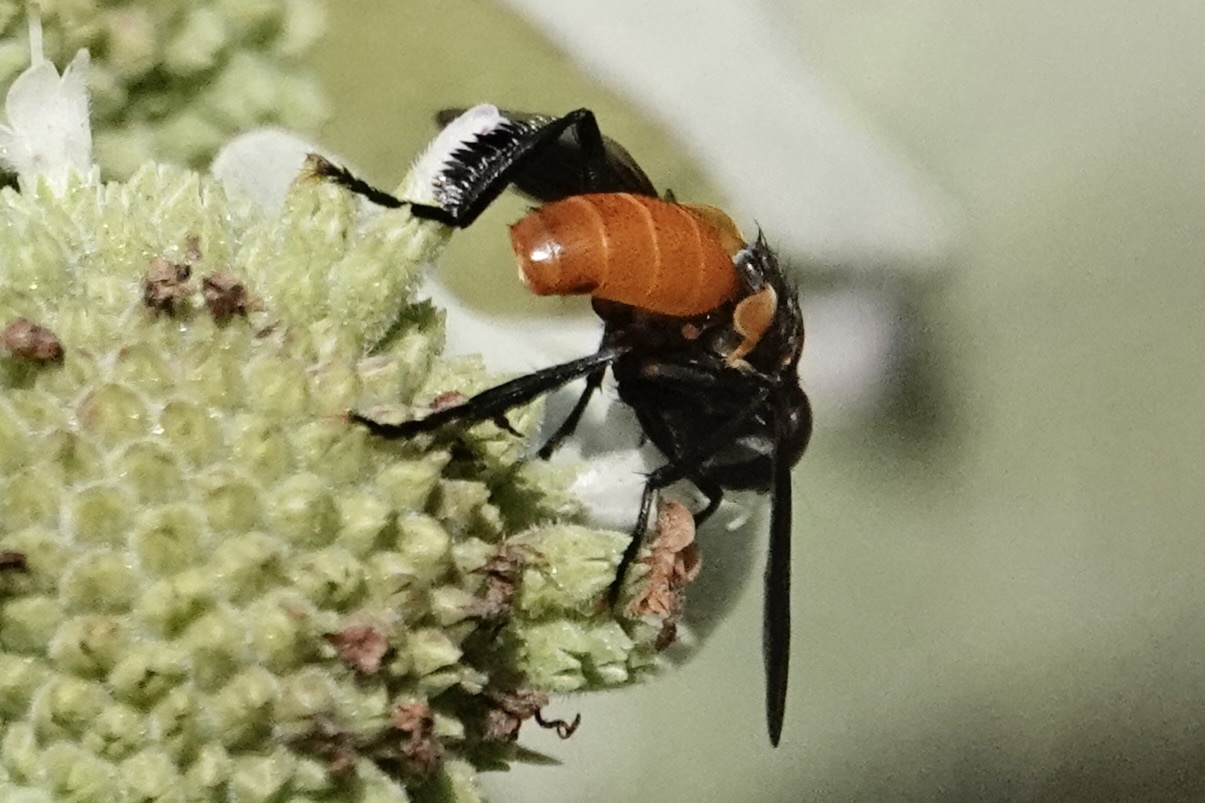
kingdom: Animalia
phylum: Arthropoda
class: Insecta
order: Diptera
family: Tachinidae
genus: Trichopoda
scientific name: Trichopoda pennipes
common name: Tachinid fly
